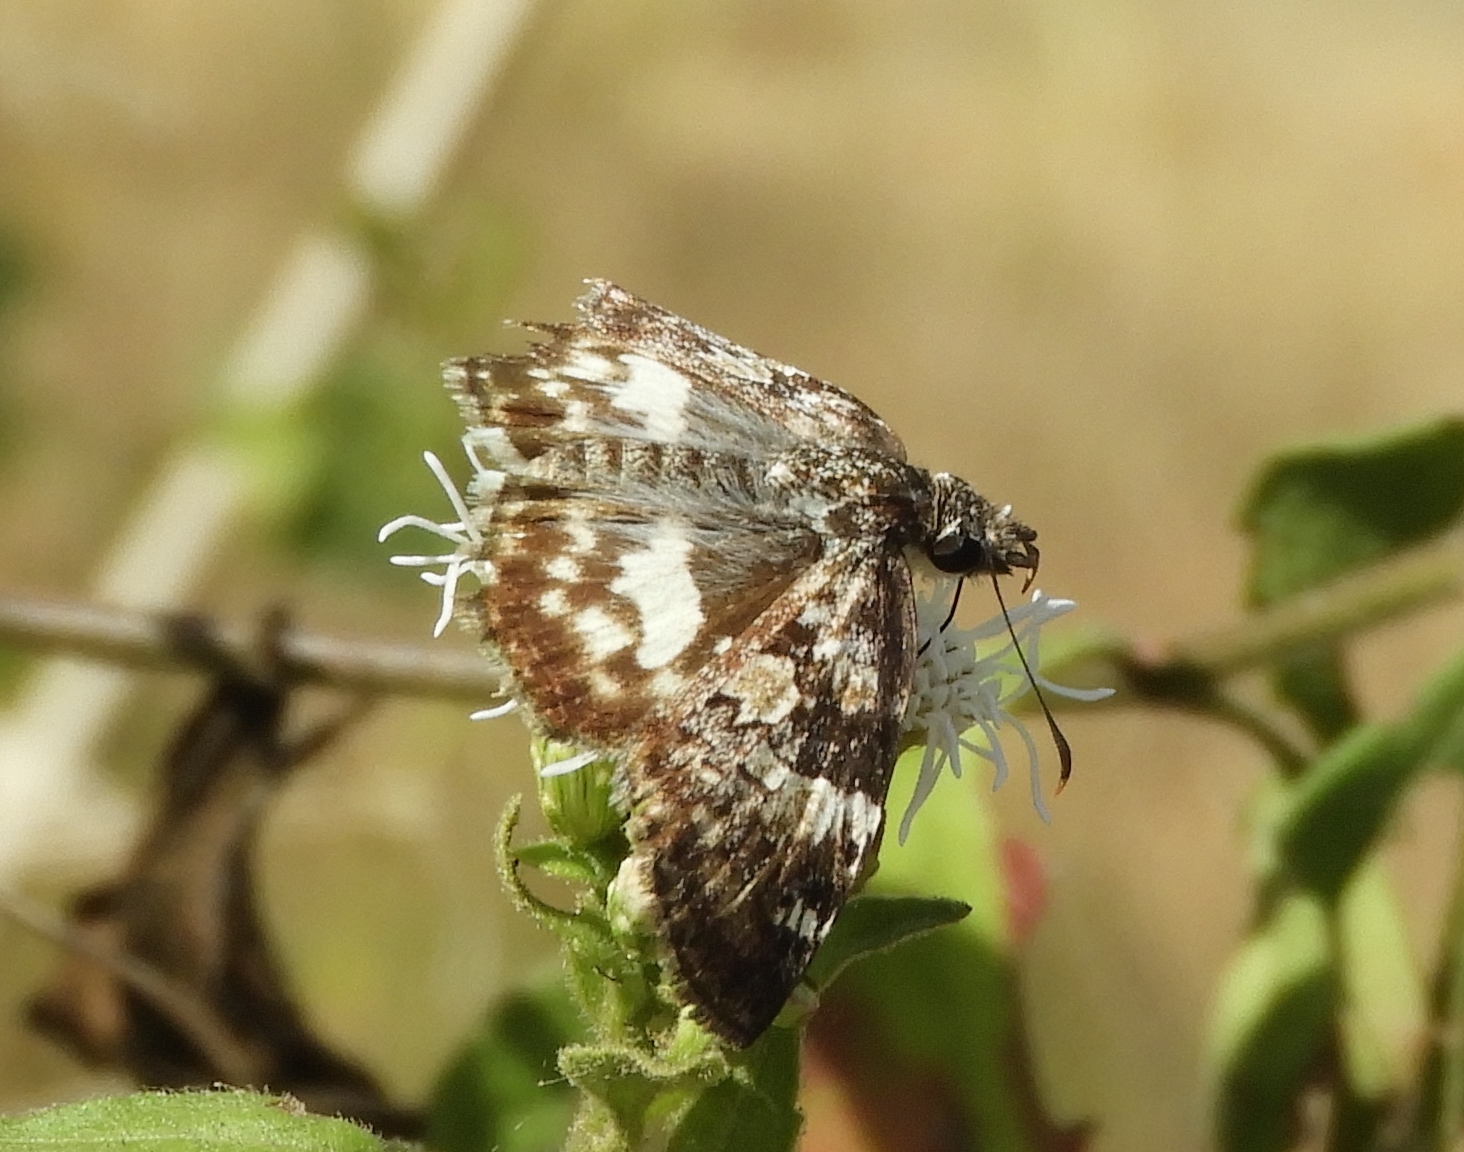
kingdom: Animalia
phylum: Arthropoda
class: Insecta
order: Lepidoptera
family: Hesperiidae
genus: Chiothion
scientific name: Chiothion georgina
